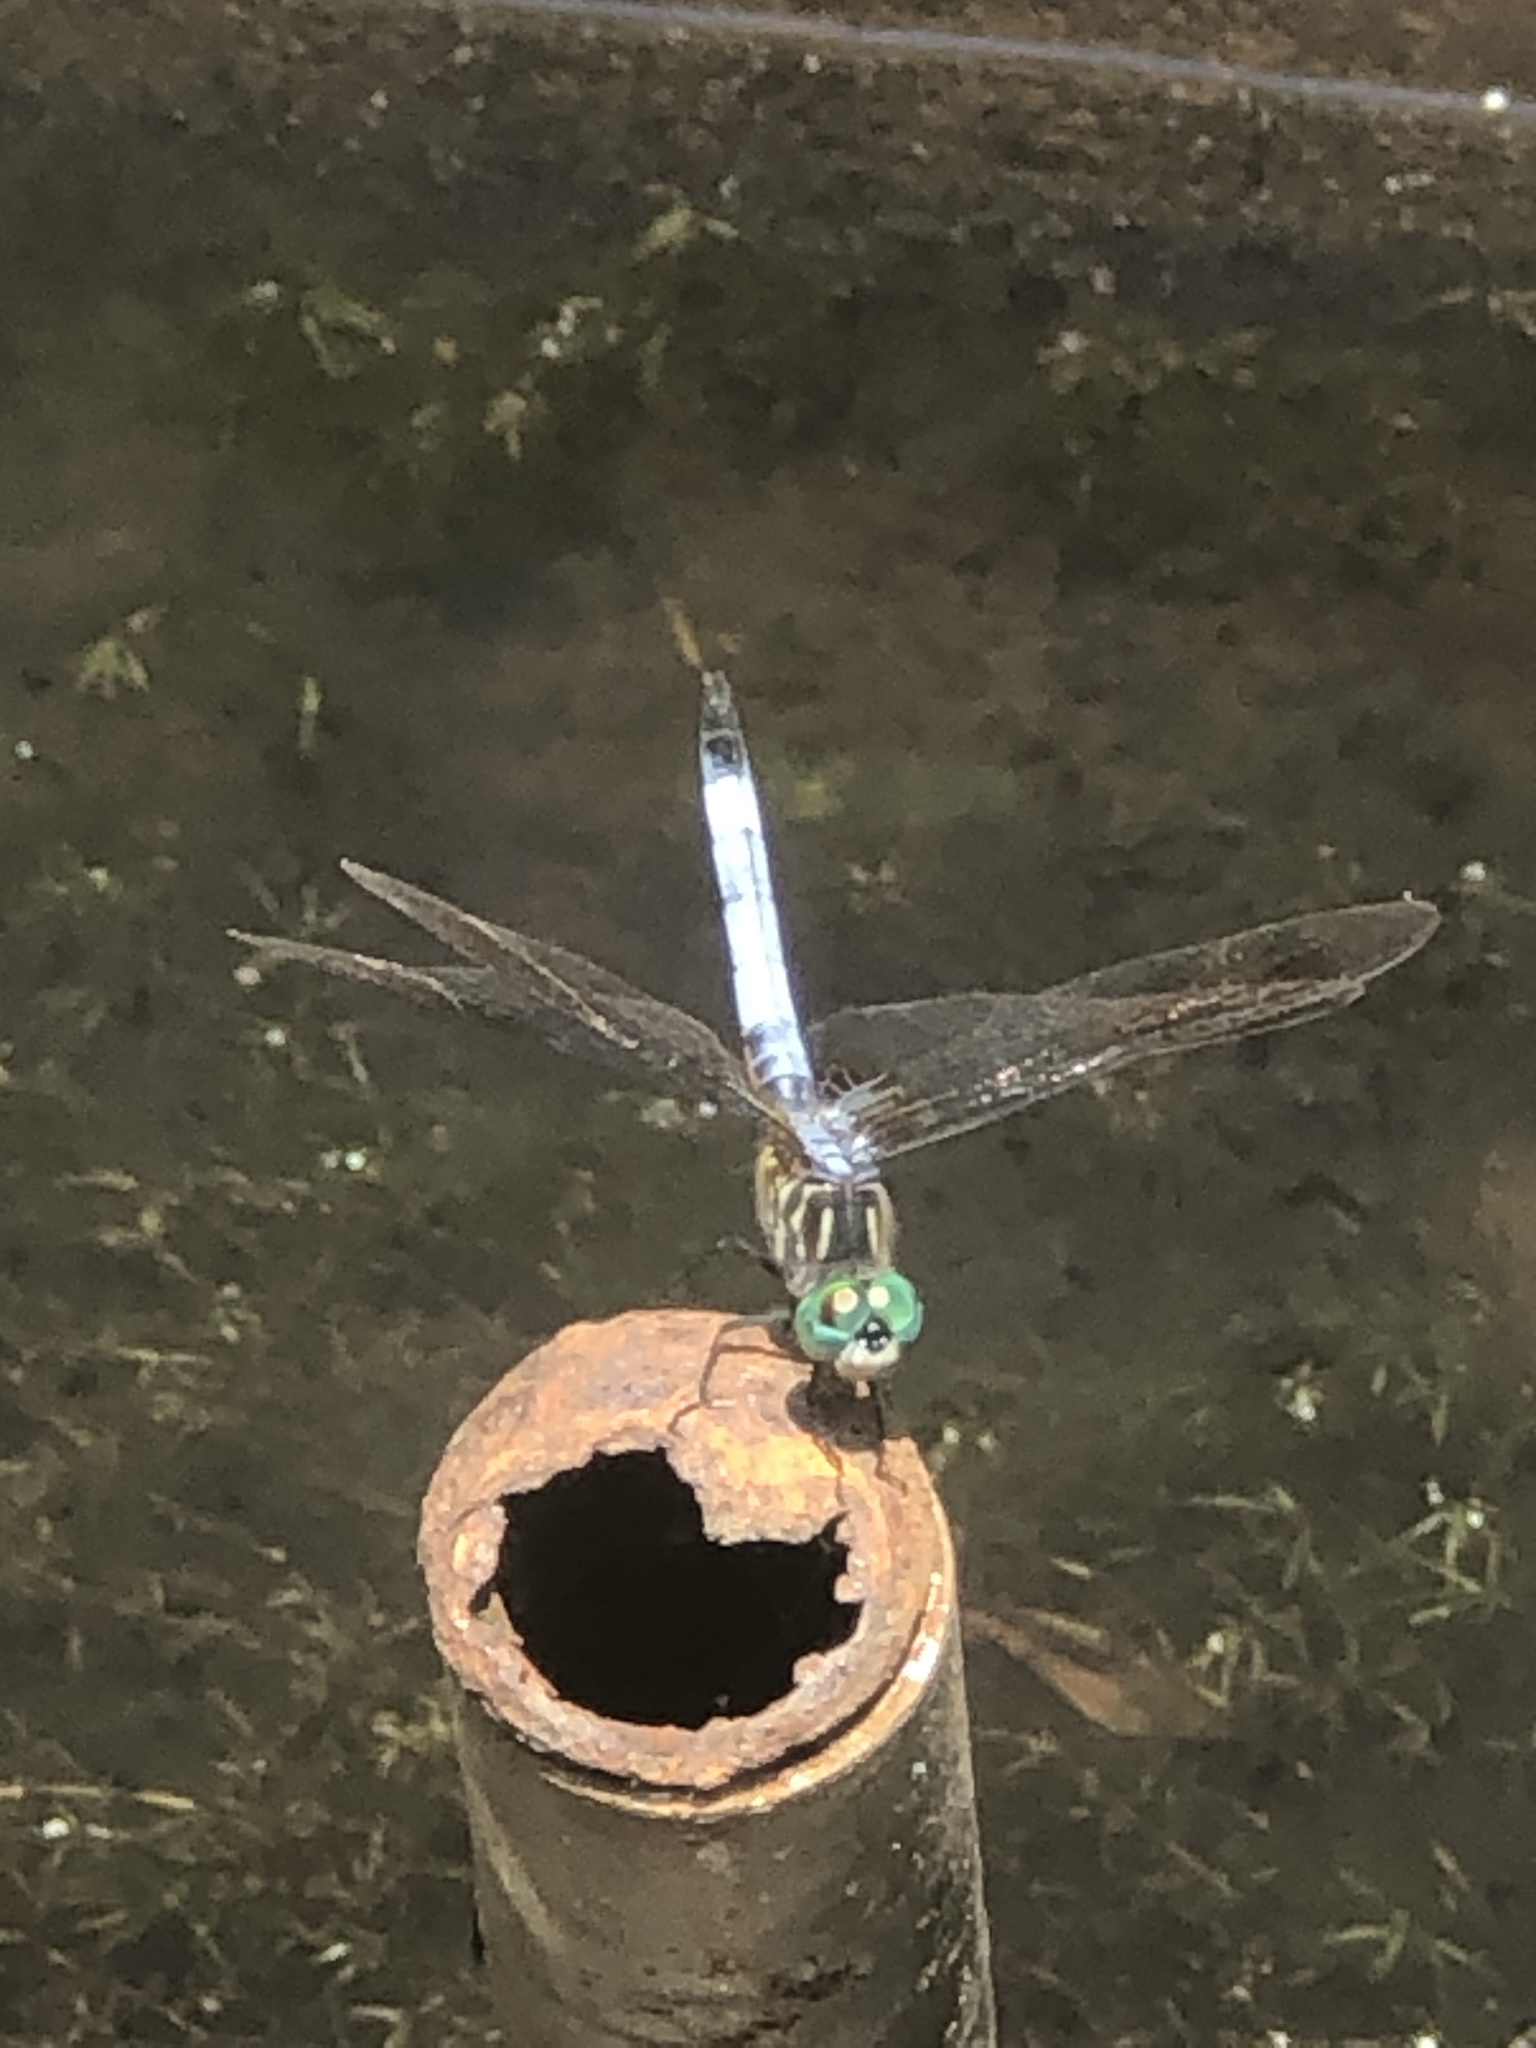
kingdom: Animalia
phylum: Arthropoda
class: Insecta
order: Odonata
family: Libellulidae
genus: Pachydiplax
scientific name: Pachydiplax longipennis
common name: Blue dasher
